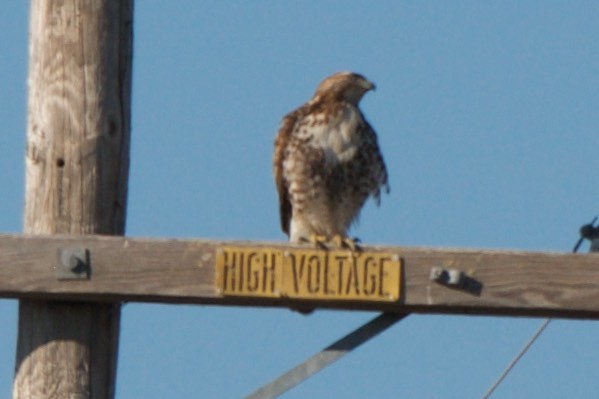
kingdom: Animalia
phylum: Chordata
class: Aves
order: Accipitriformes
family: Accipitridae
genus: Buteo
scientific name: Buteo jamaicensis
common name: Red-tailed hawk
